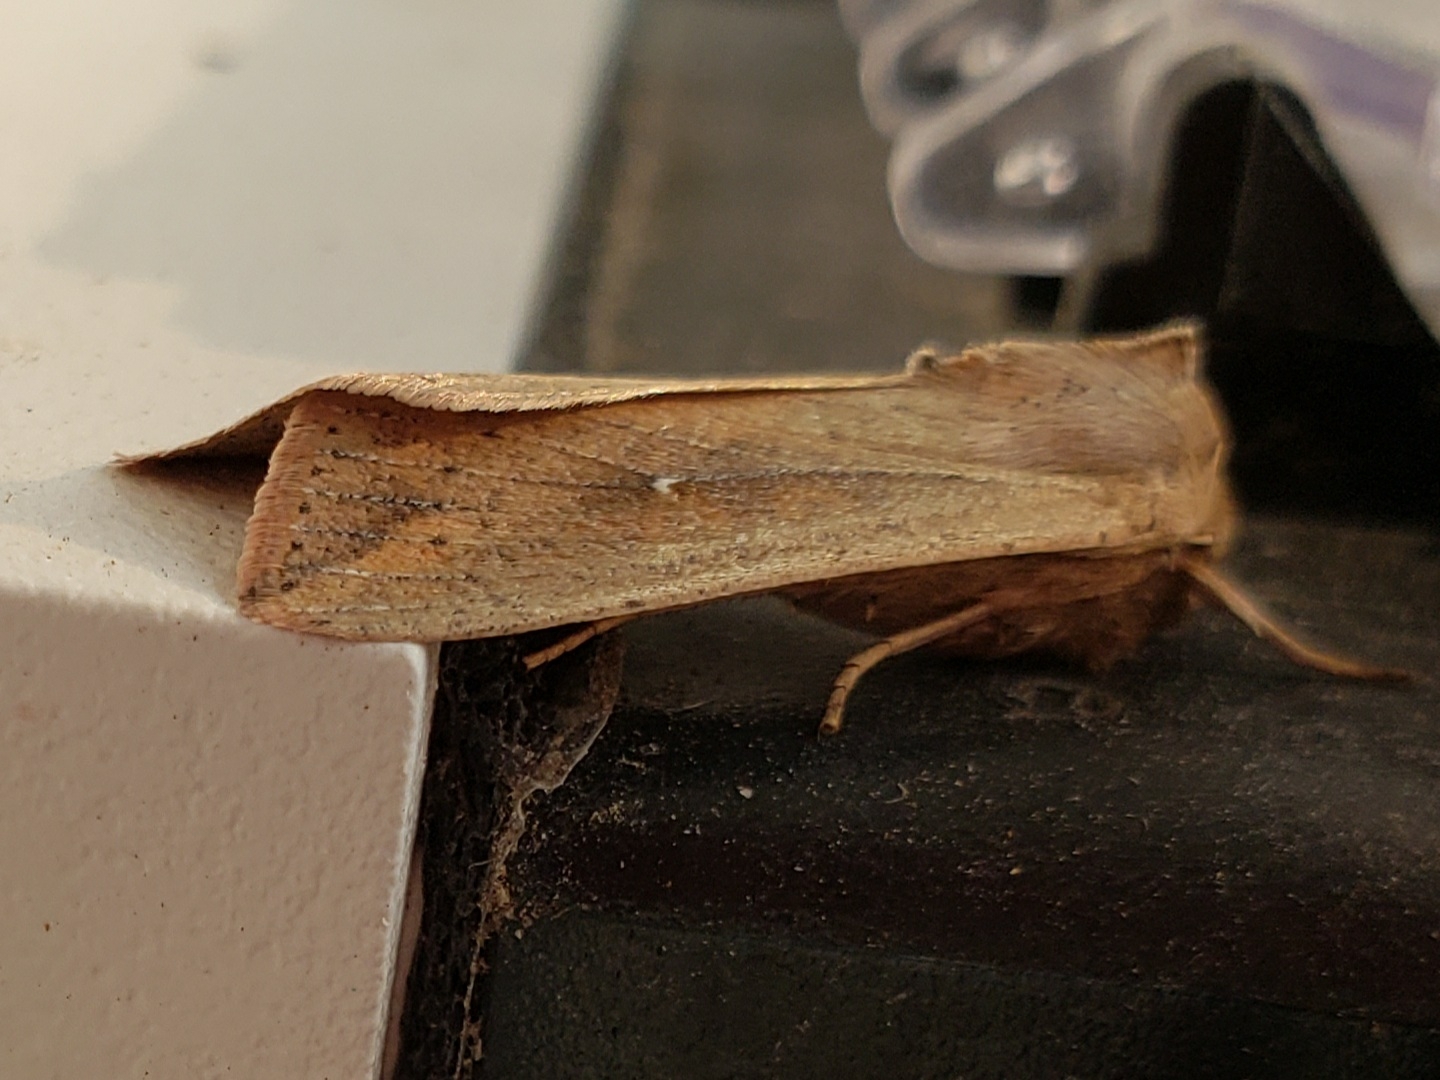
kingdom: Animalia
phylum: Arthropoda
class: Insecta
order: Lepidoptera
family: Noctuidae
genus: Mythimna
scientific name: Mythimna unipuncta
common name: White-speck
